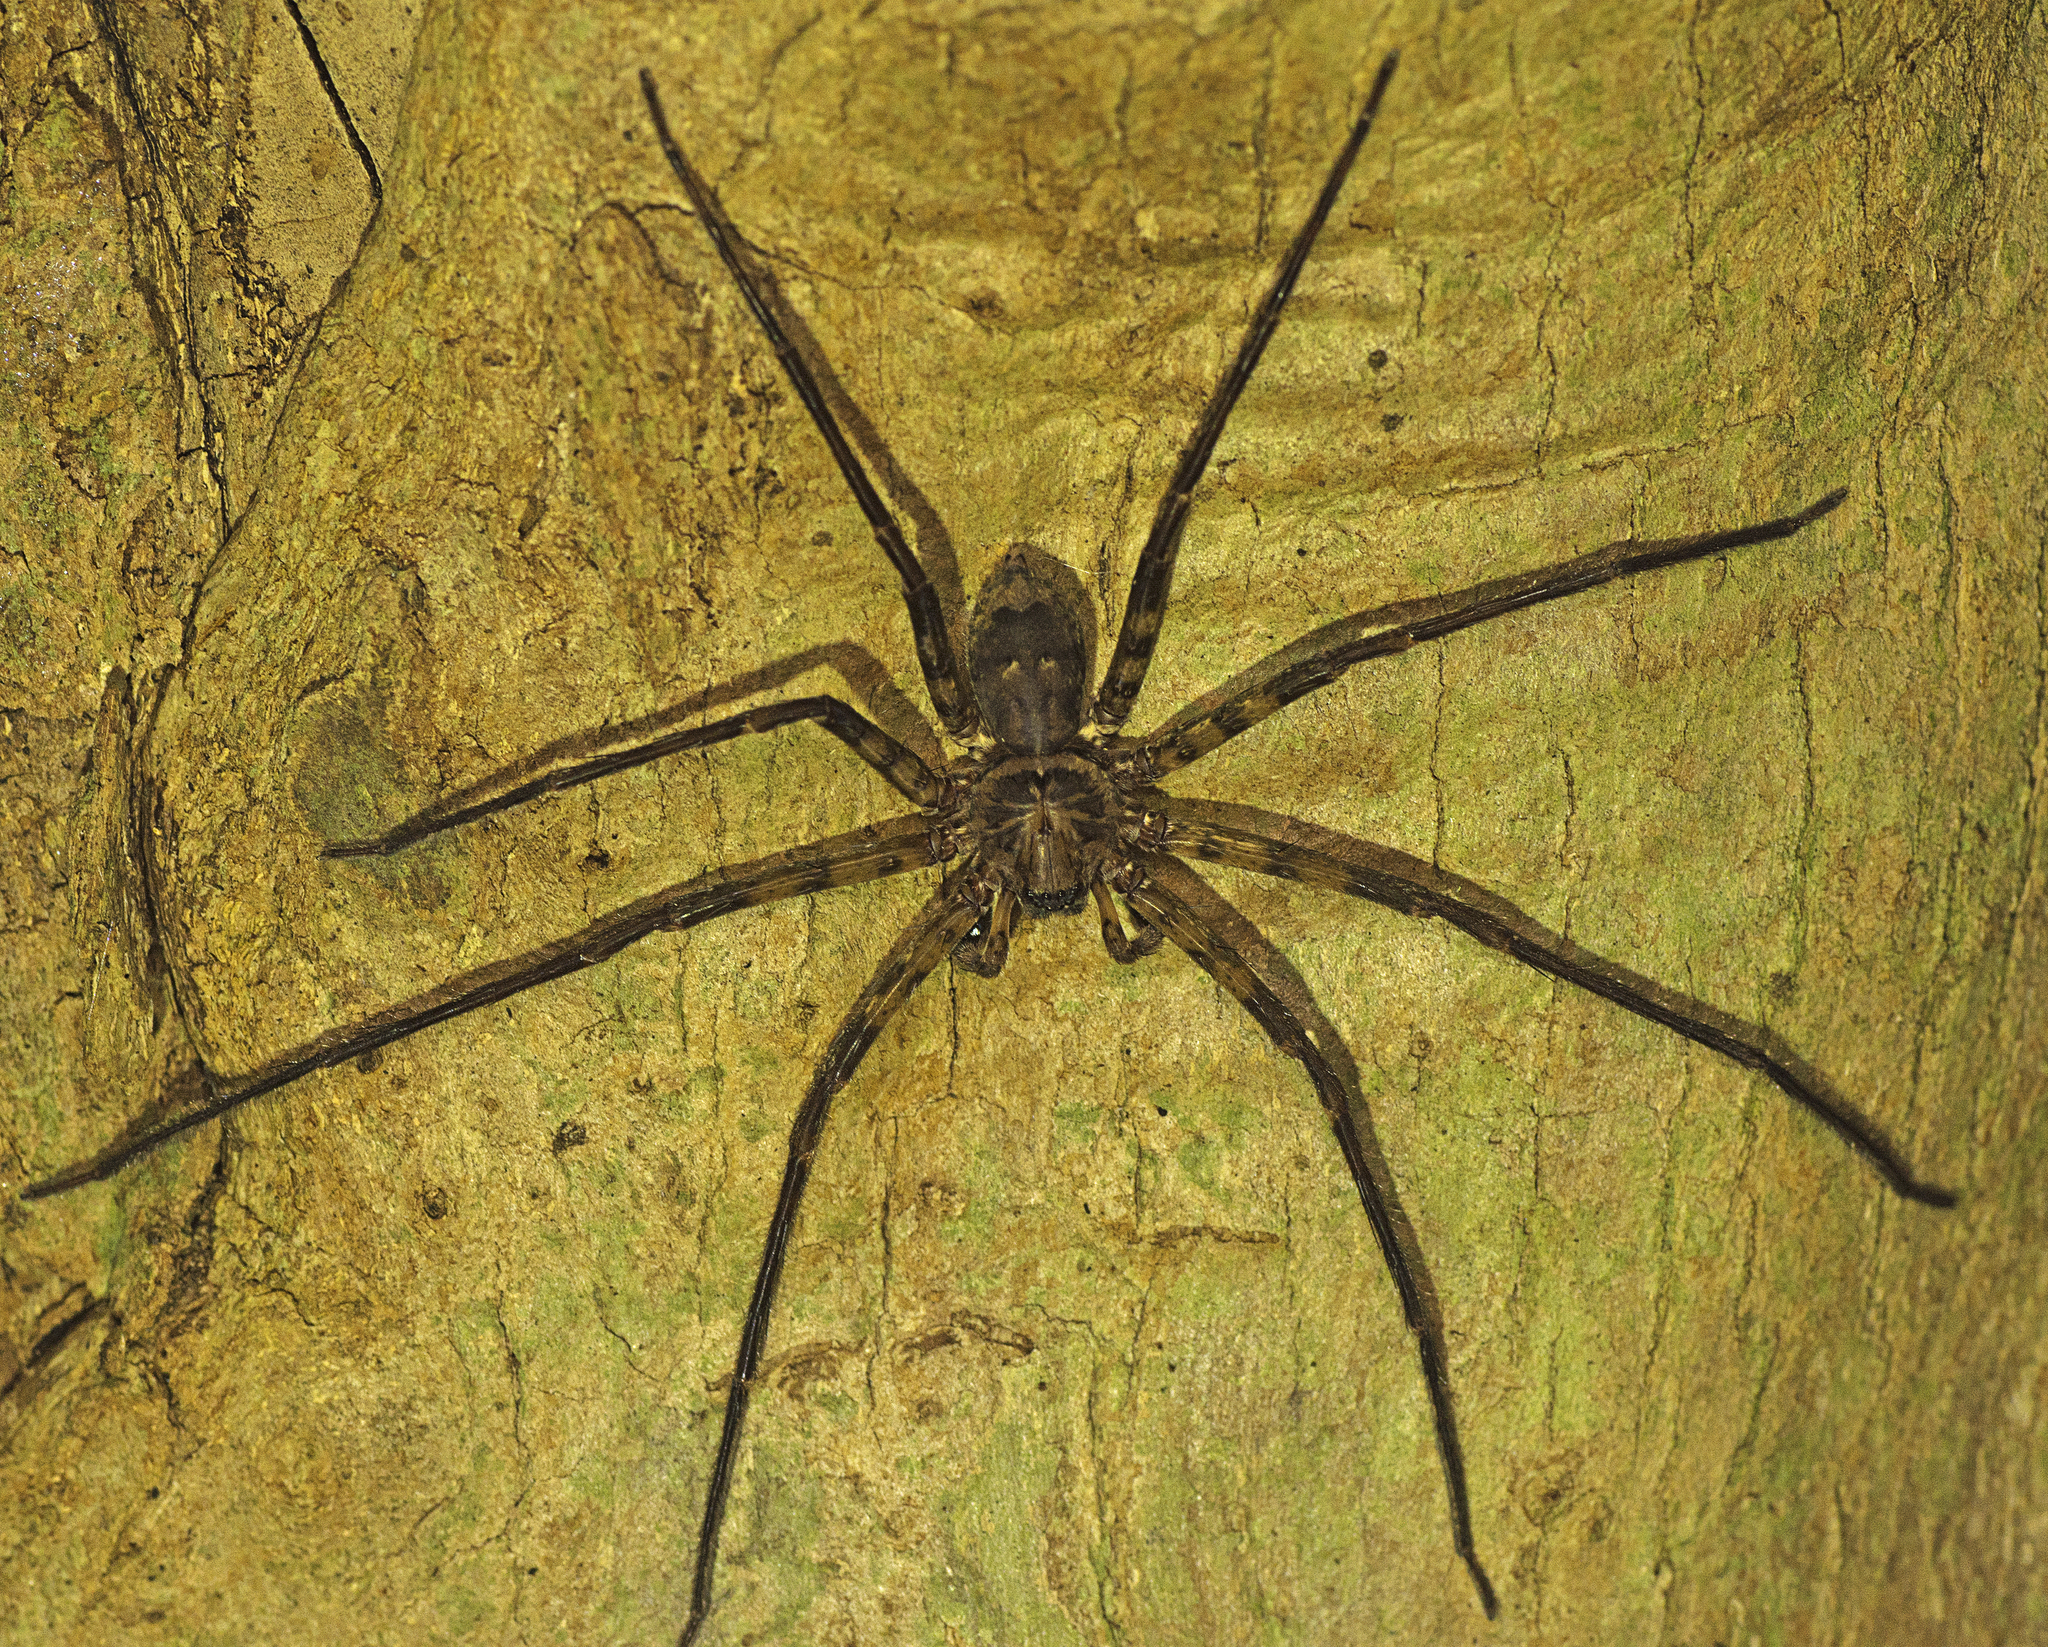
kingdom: Animalia
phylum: Arthropoda
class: Arachnida
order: Araneae
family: Sparassidae
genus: Heteropoda
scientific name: Heteropoda procera
